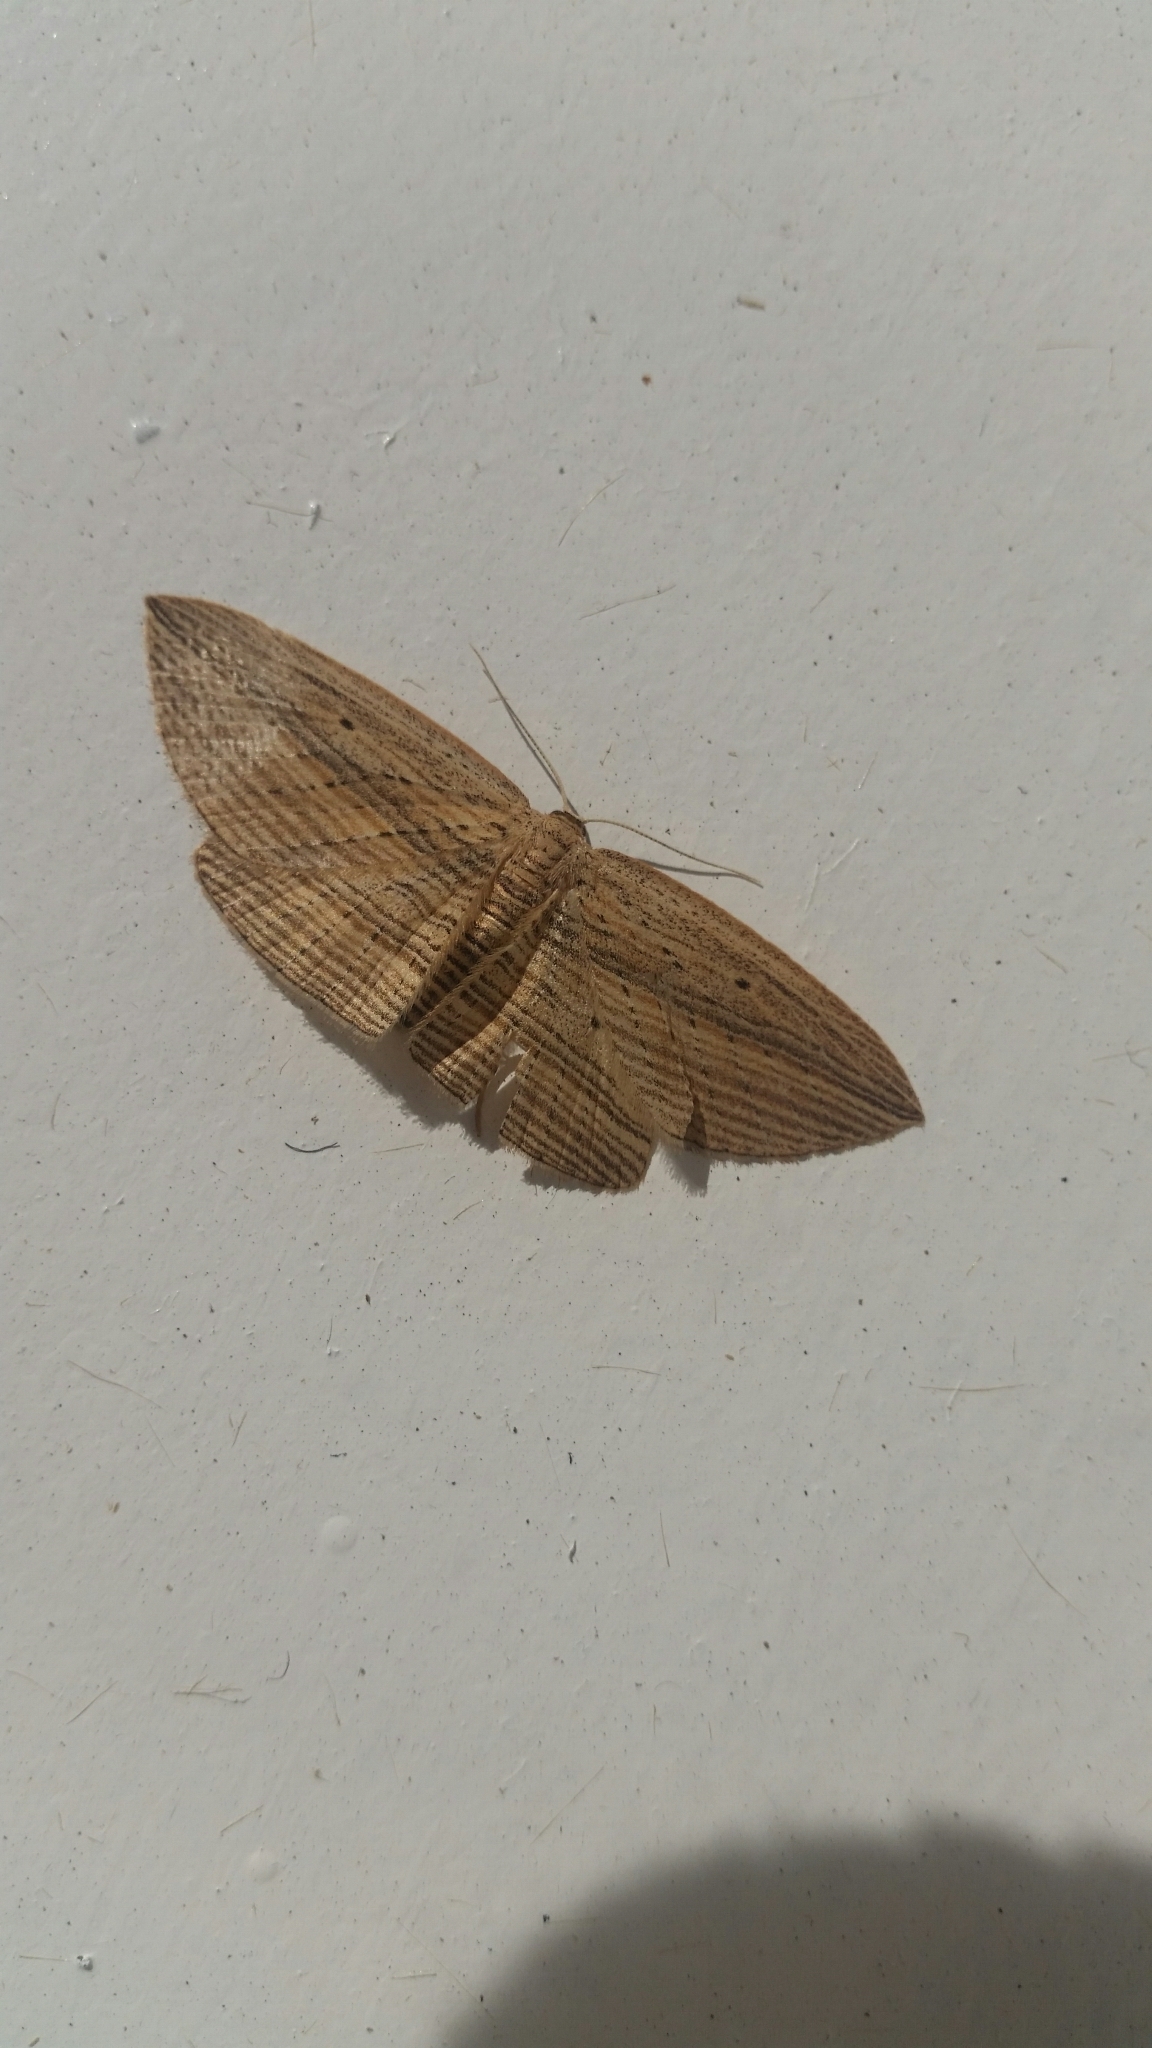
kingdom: Animalia
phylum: Arthropoda
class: Insecta
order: Lepidoptera
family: Geometridae
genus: Epiphryne
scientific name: Epiphryne verriculata
